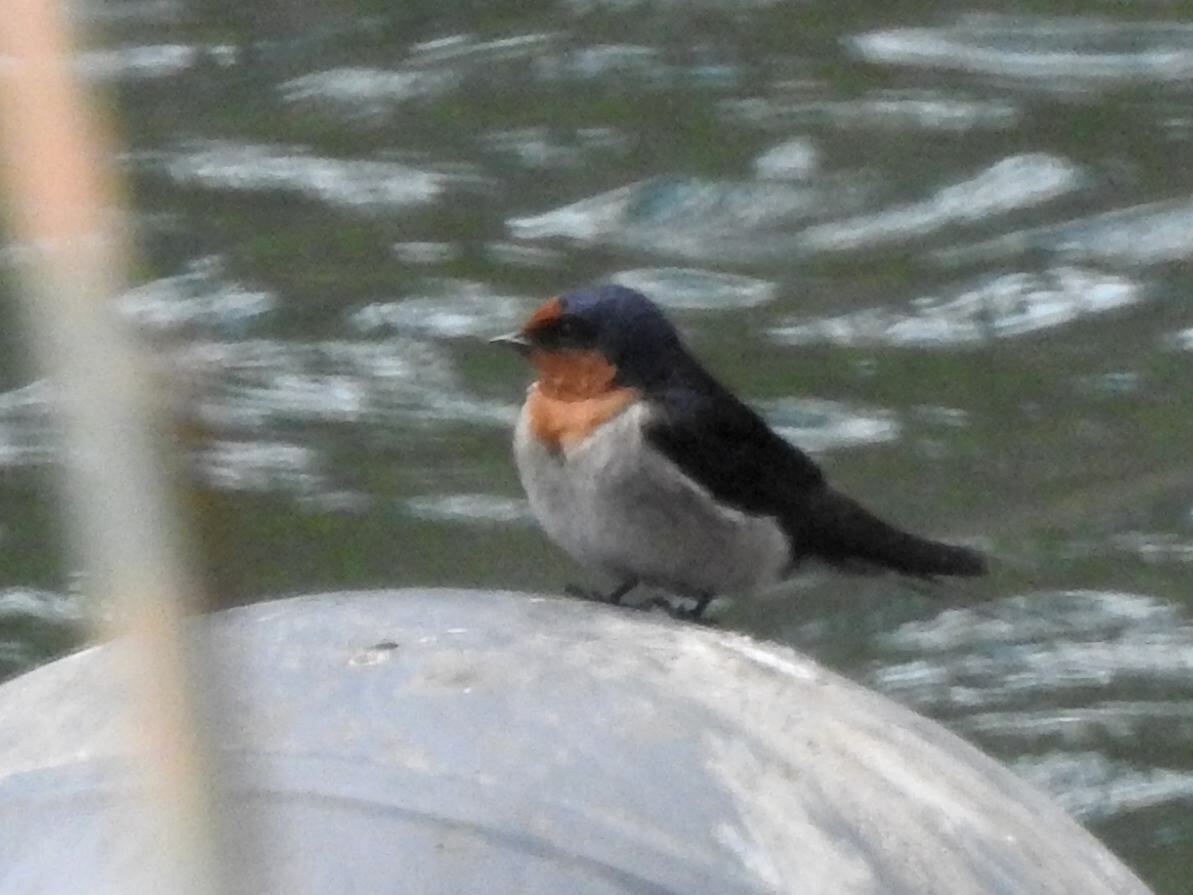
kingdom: Animalia
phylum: Chordata
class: Aves
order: Passeriformes
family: Hirundinidae
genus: Hirundo
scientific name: Hirundo neoxena
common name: Welcome swallow
